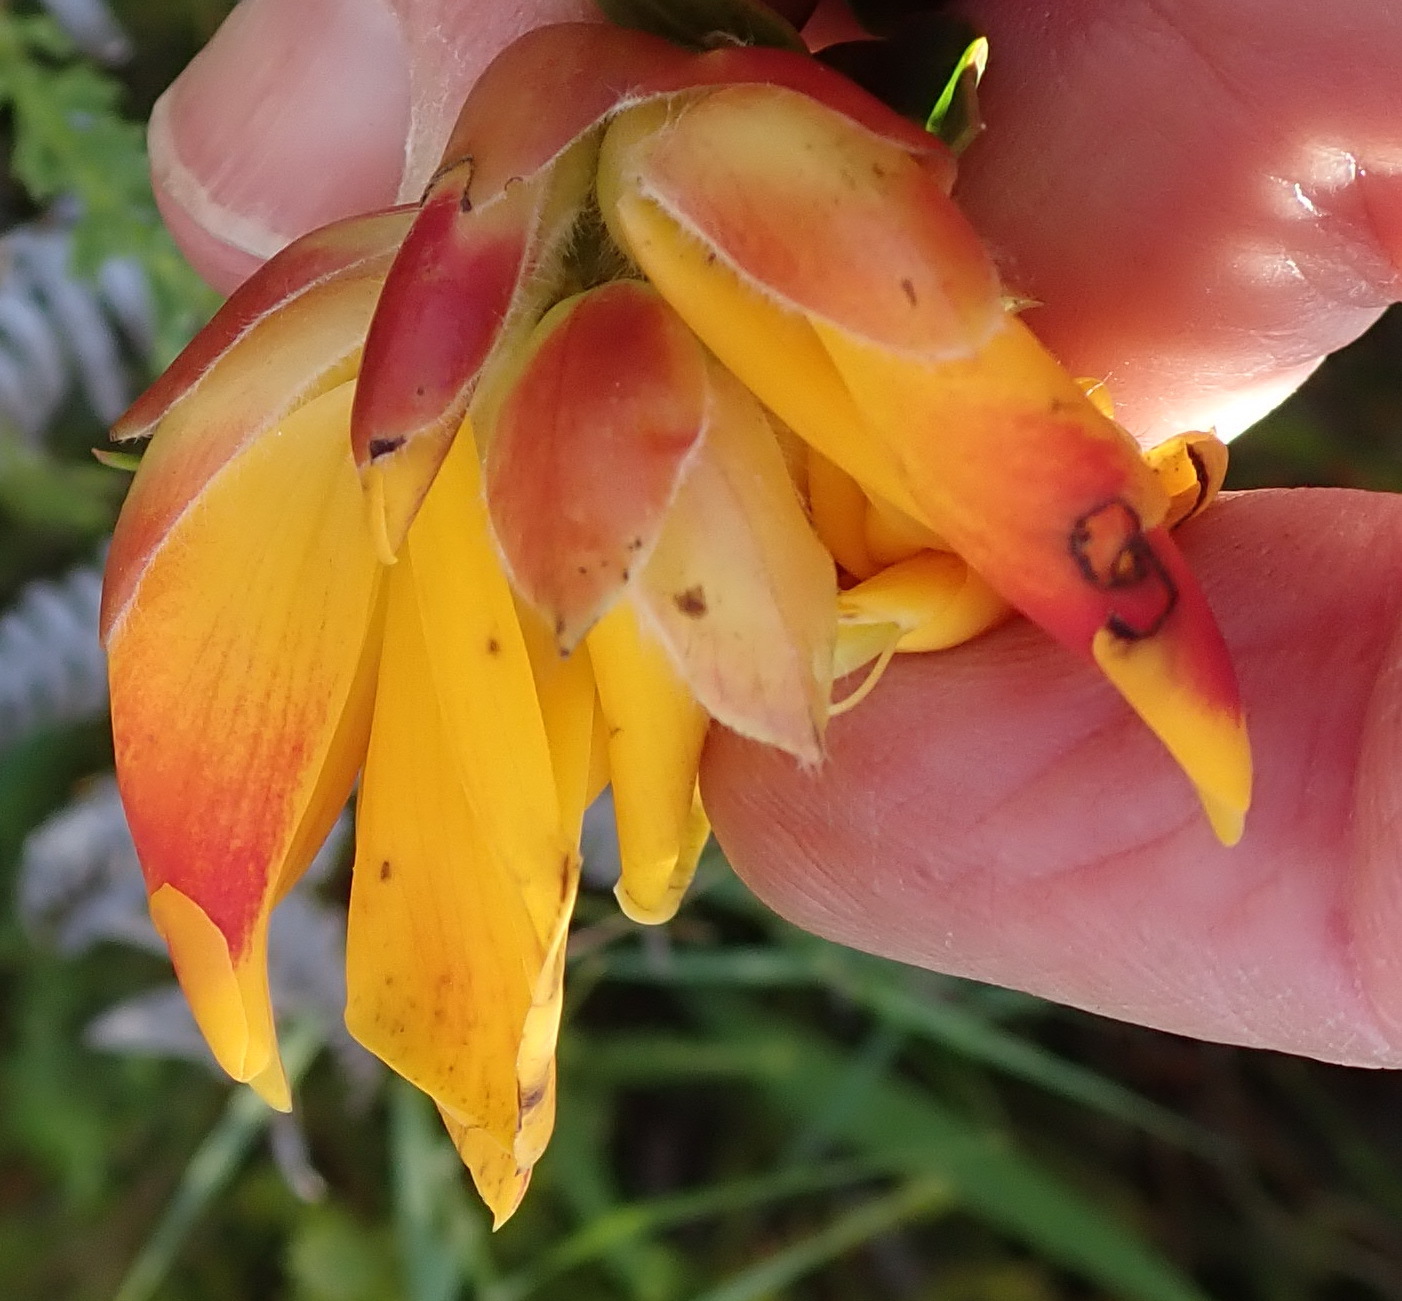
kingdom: Plantae
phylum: Tracheophyta
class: Magnoliopsida
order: Fabales
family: Fabaceae
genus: Liparia
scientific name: Liparia splendens
